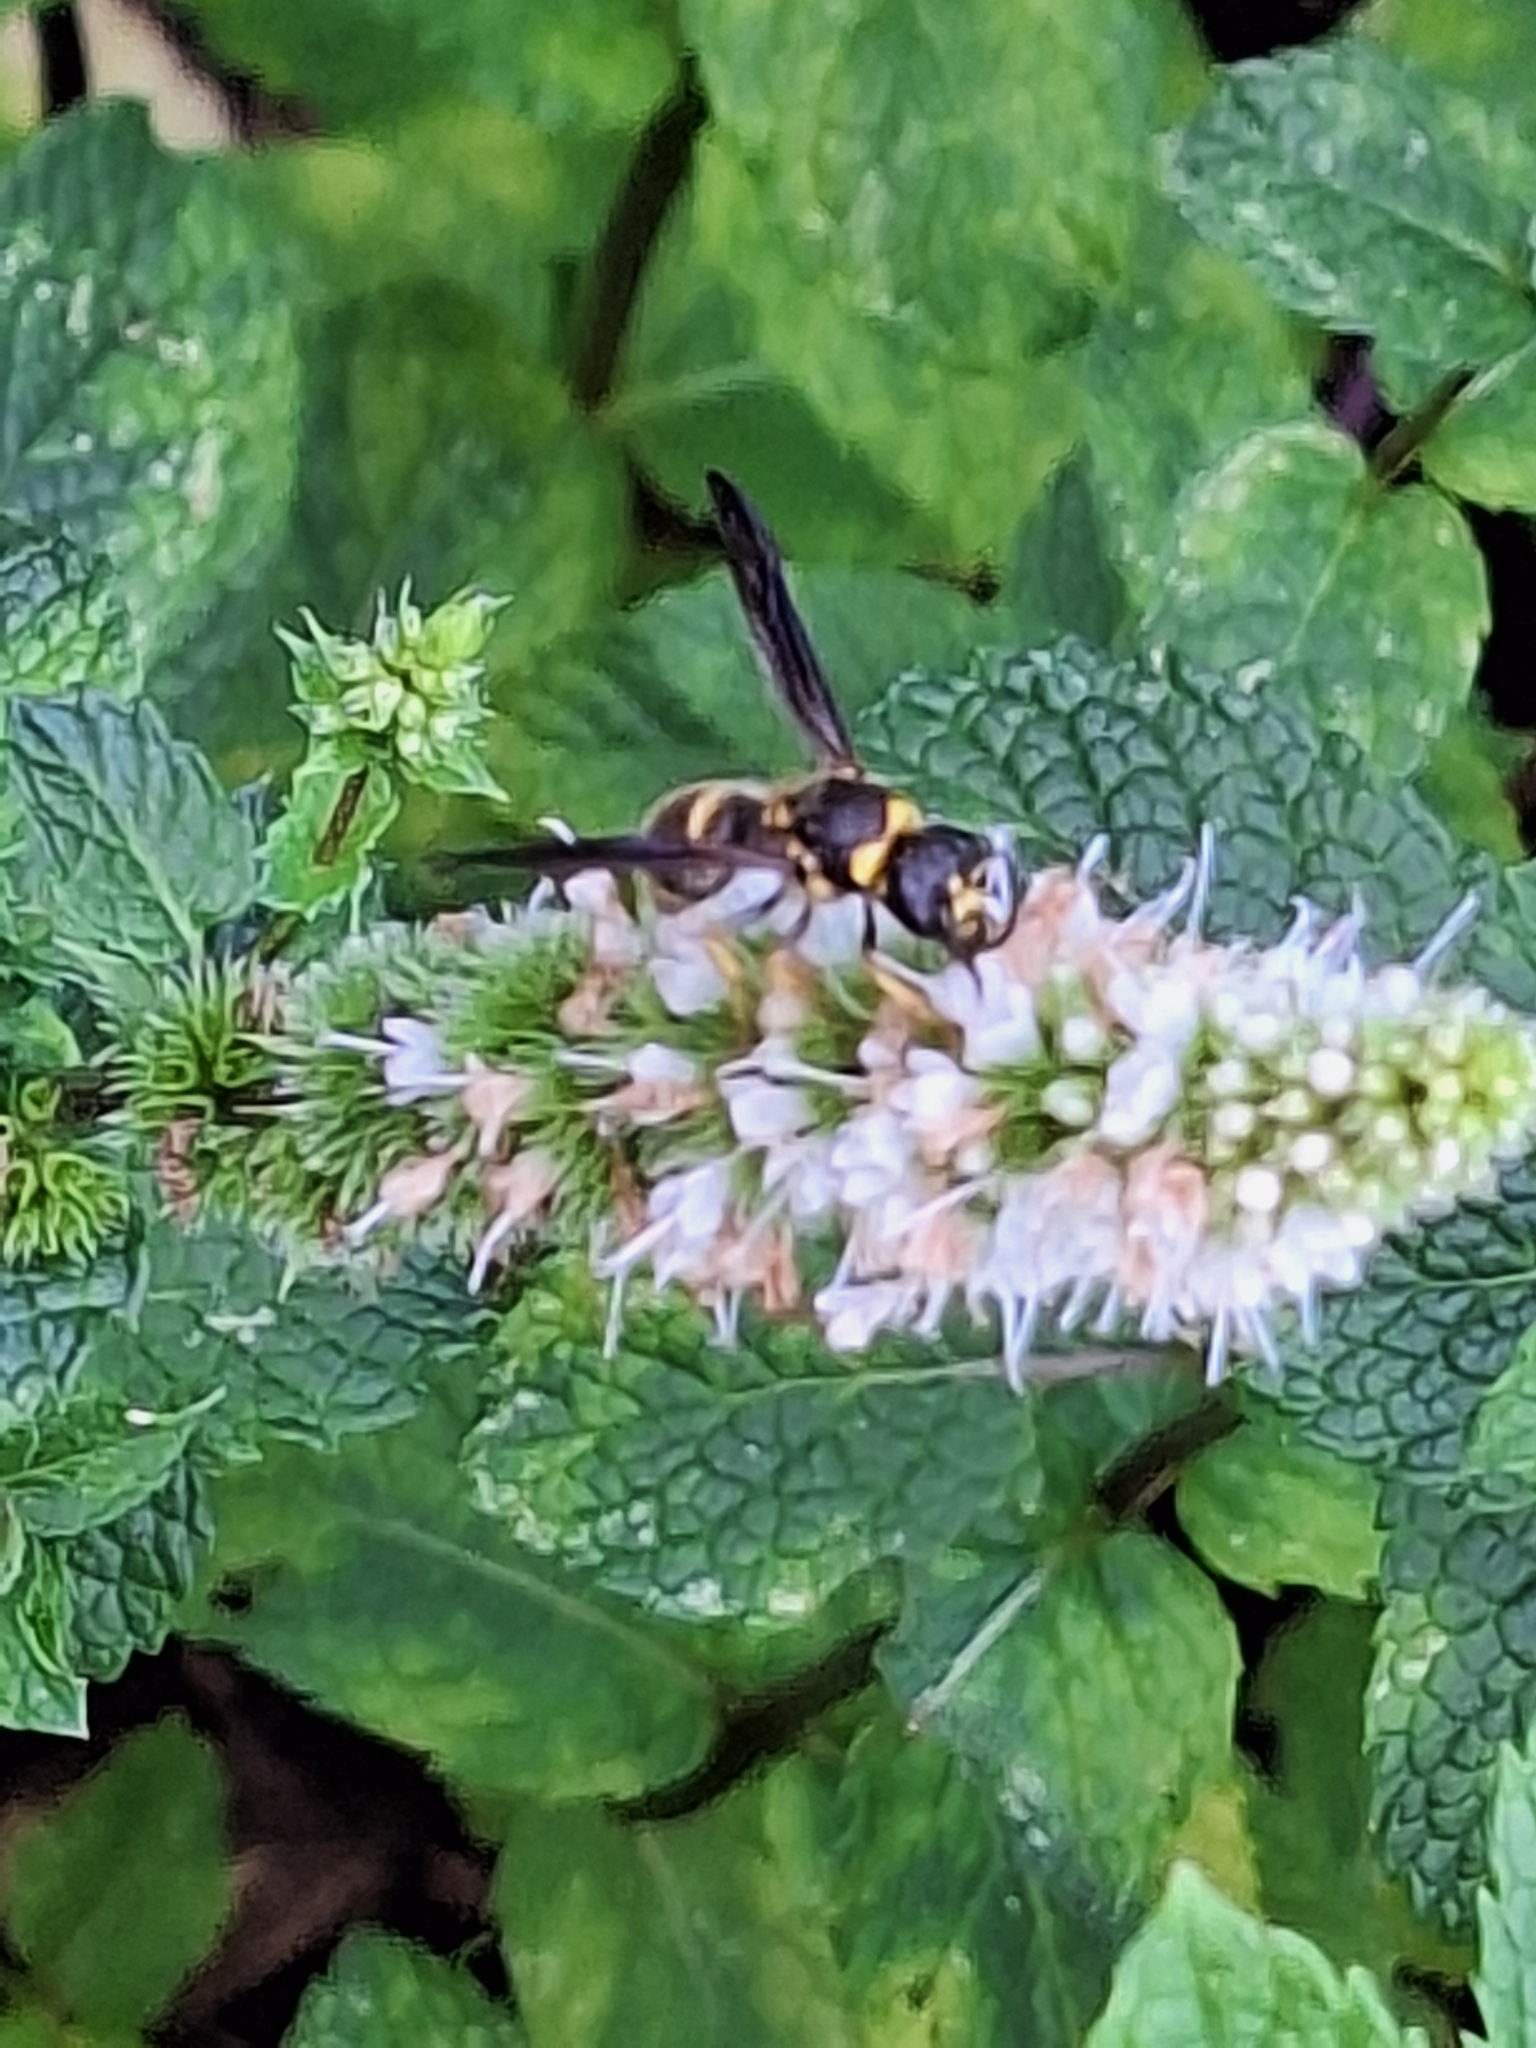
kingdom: Animalia
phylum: Arthropoda
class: Insecta
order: Hymenoptera
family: Vespidae
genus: Ancistrocerus
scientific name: Ancistrocerus campestris
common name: Smiling mason wasp
